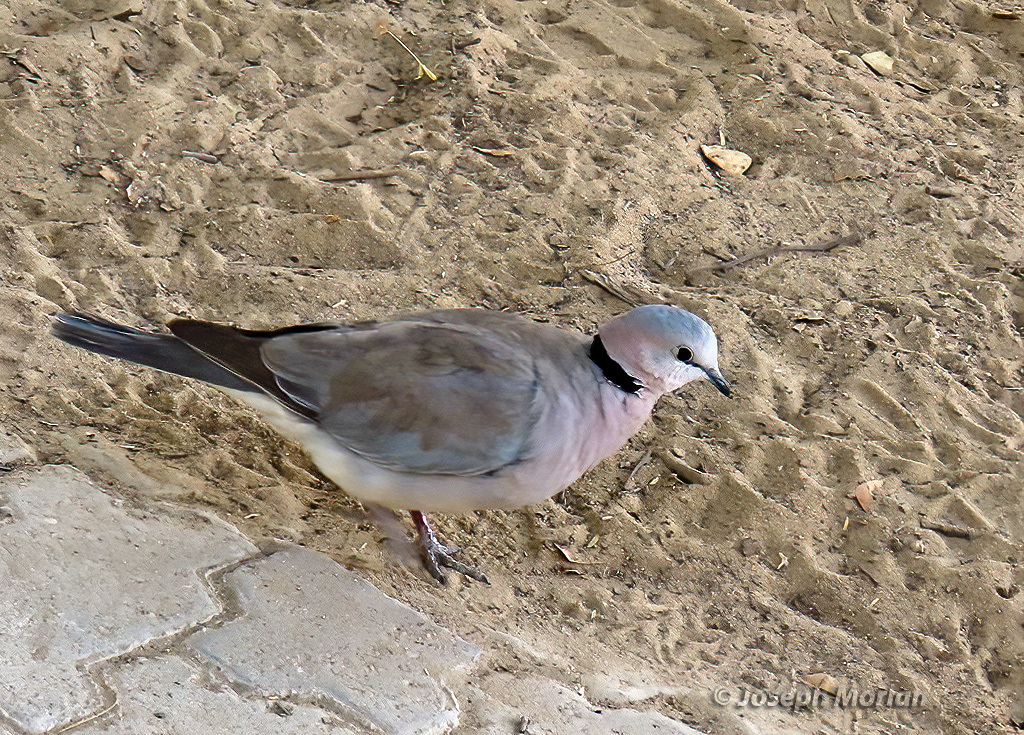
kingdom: Animalia
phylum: Chordata
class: Aves
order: Columbiformes
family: Columbidae
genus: Streptopelia
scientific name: Streptopelia capicola
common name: Ring-necked dove
